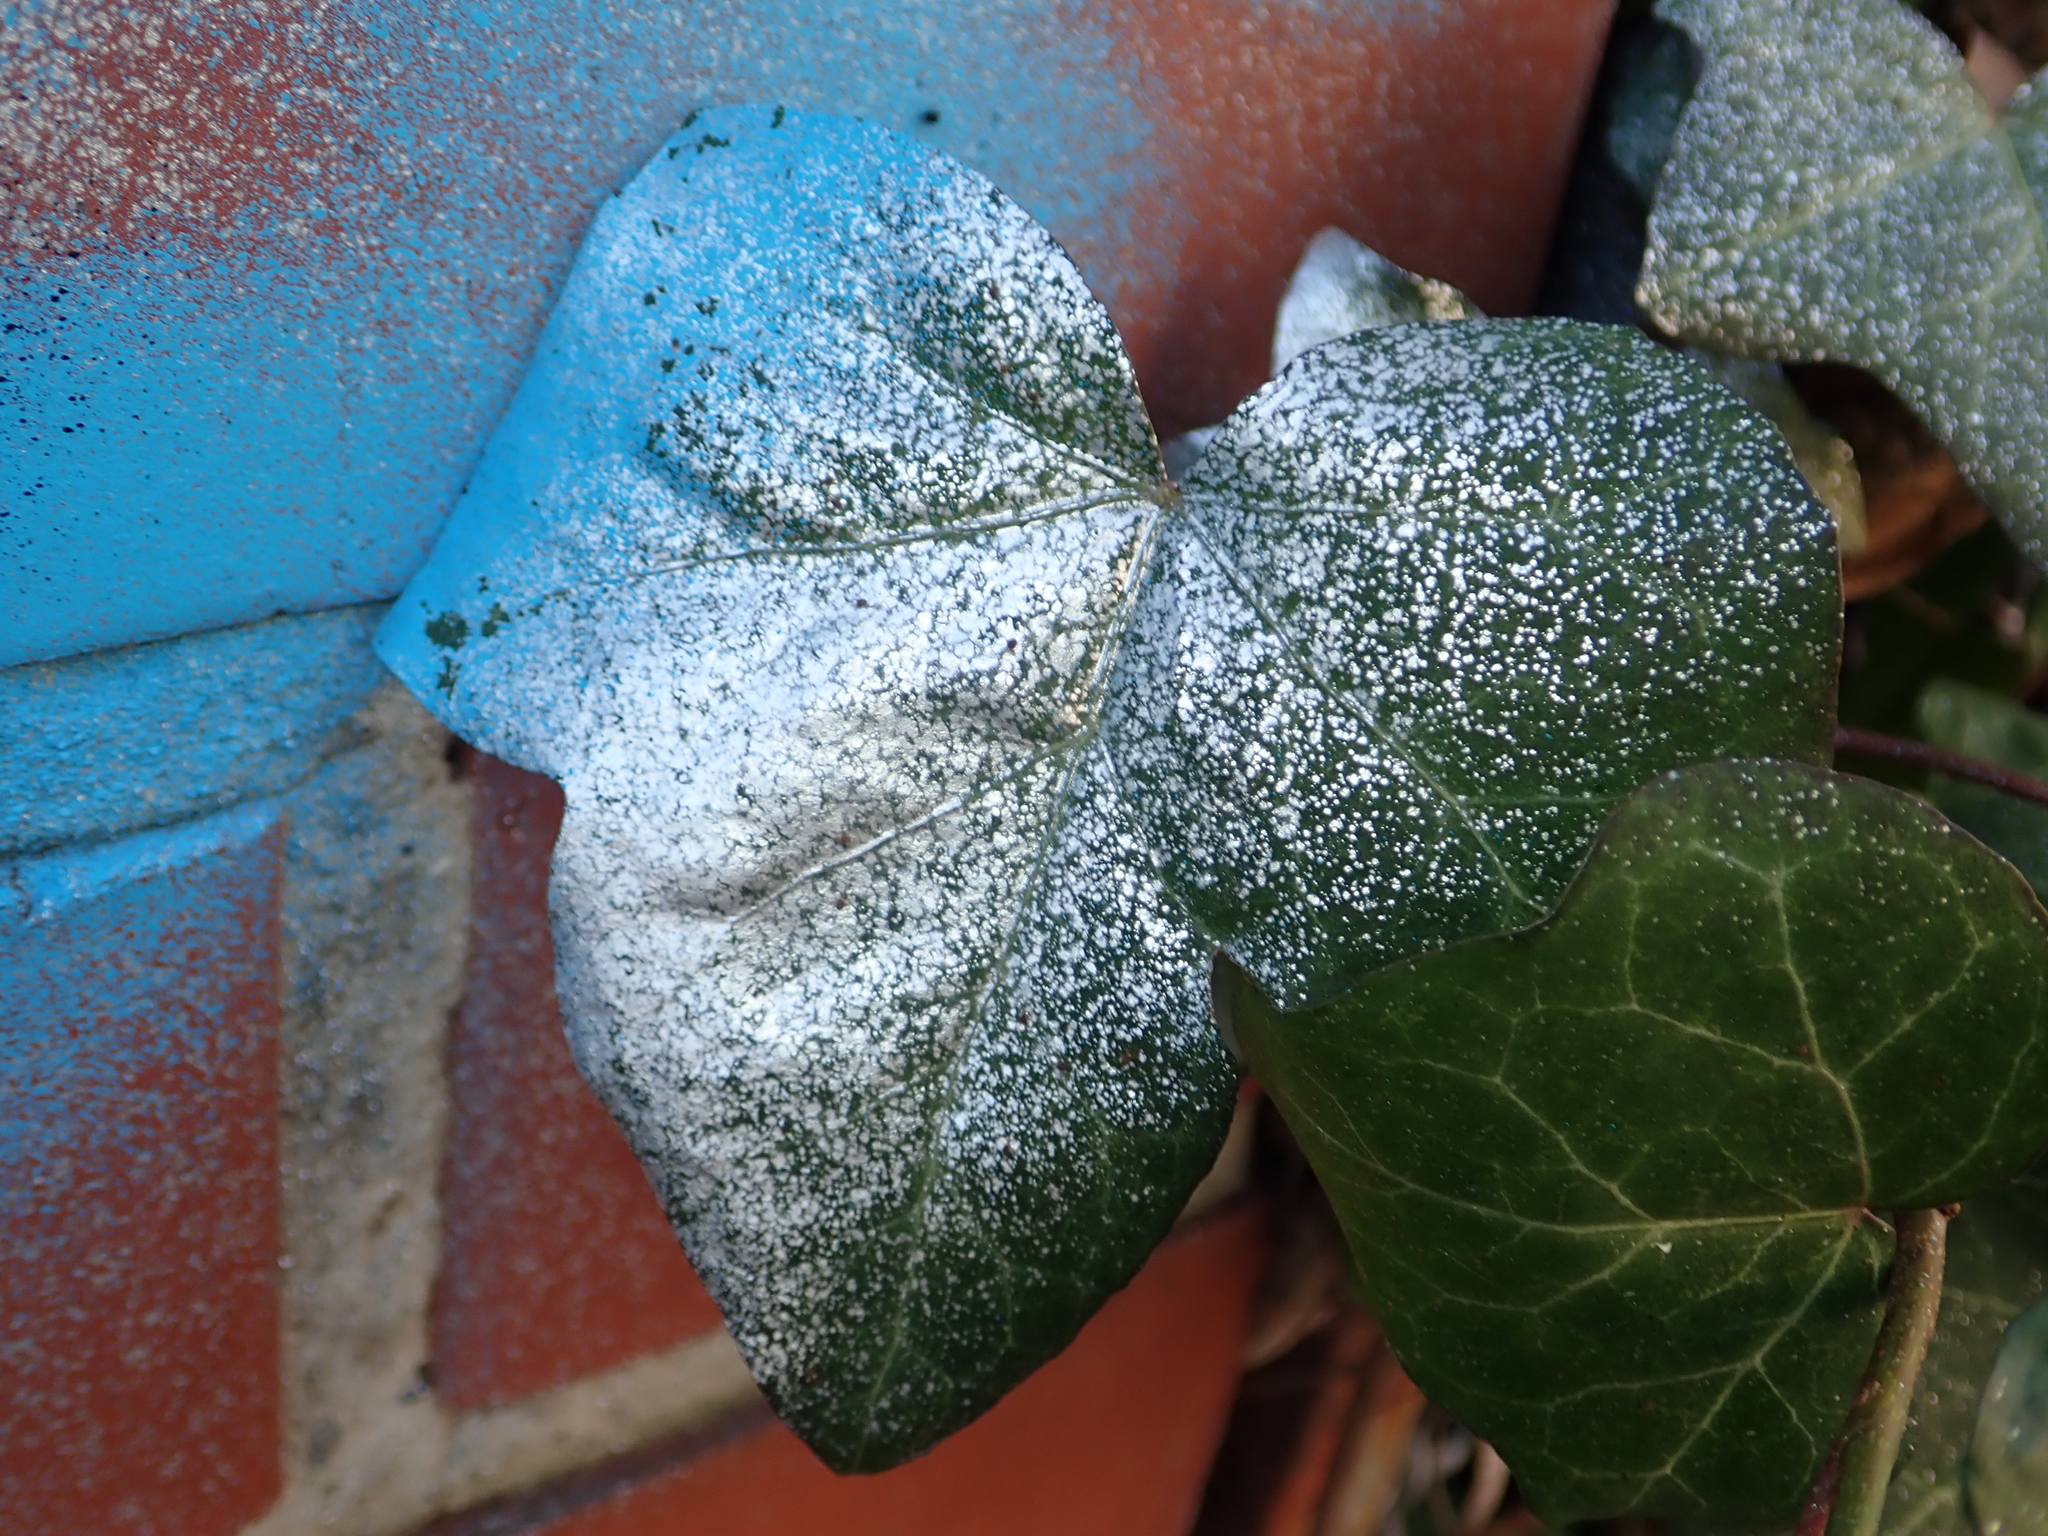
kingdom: Plantae
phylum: Tracheophyta
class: Magnoliopsida
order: Apiales
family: Araliaceae
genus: Hedera
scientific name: Hedera helix
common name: Ivy
